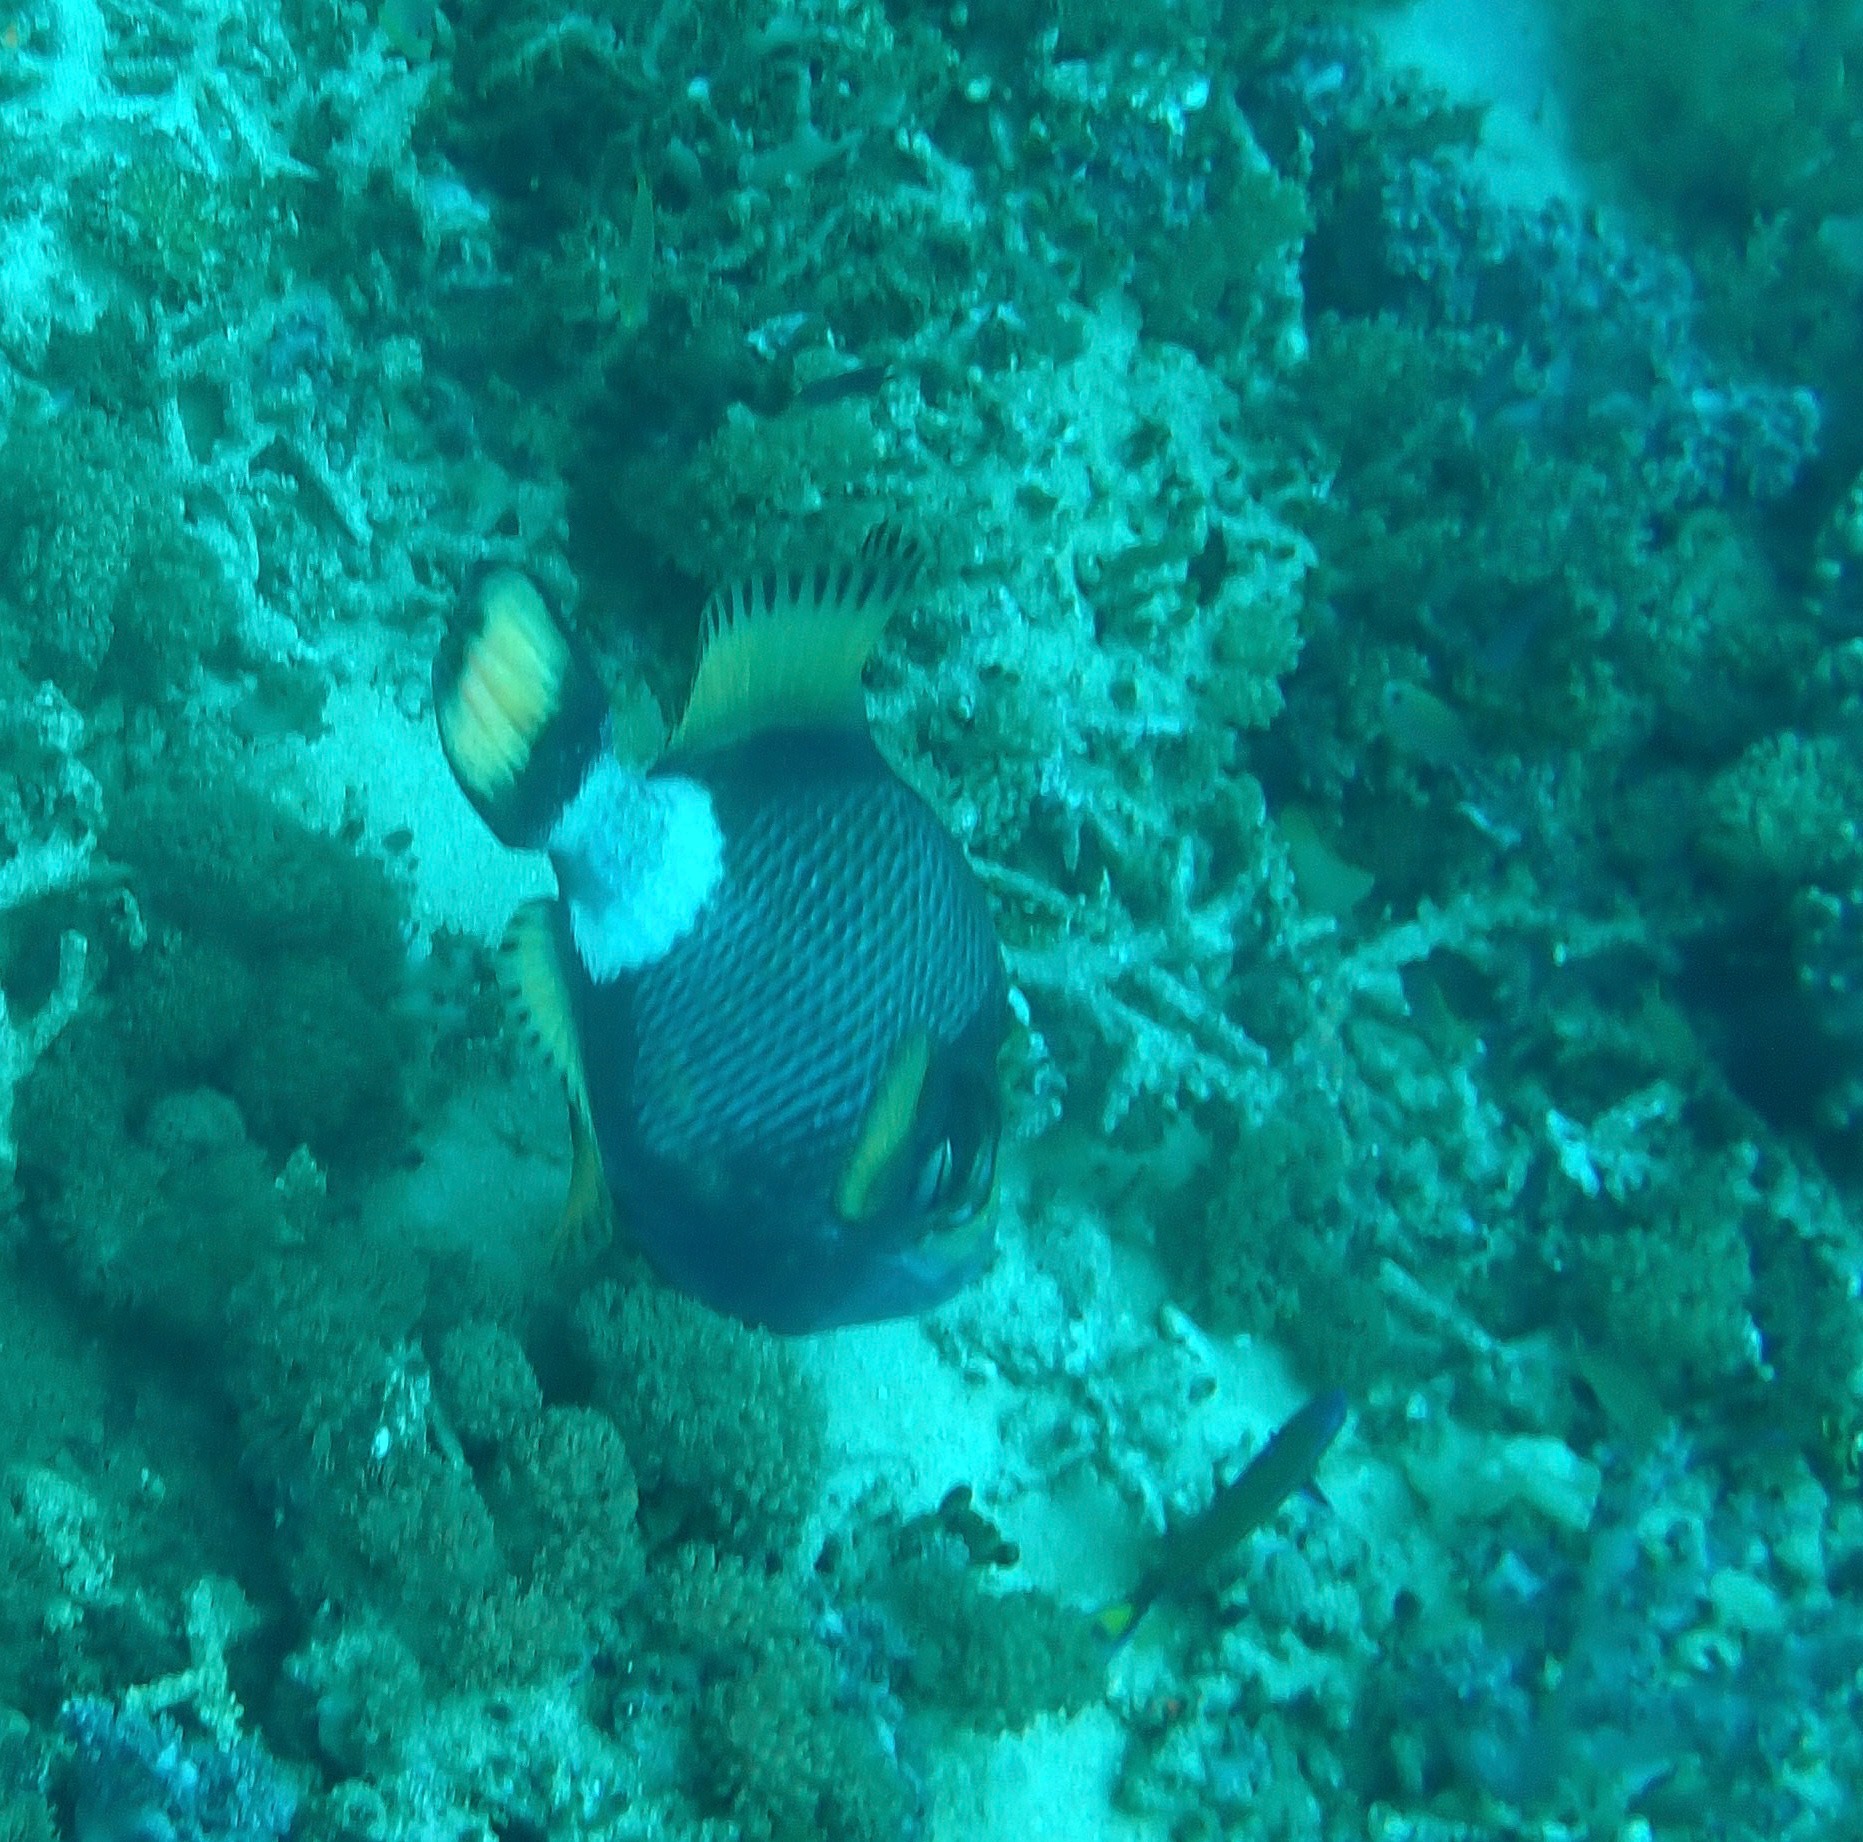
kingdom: Animalia
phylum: Chordata
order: Tetraodontiformes
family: Balistidae
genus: Balistoides
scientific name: Balistoides viridescens
